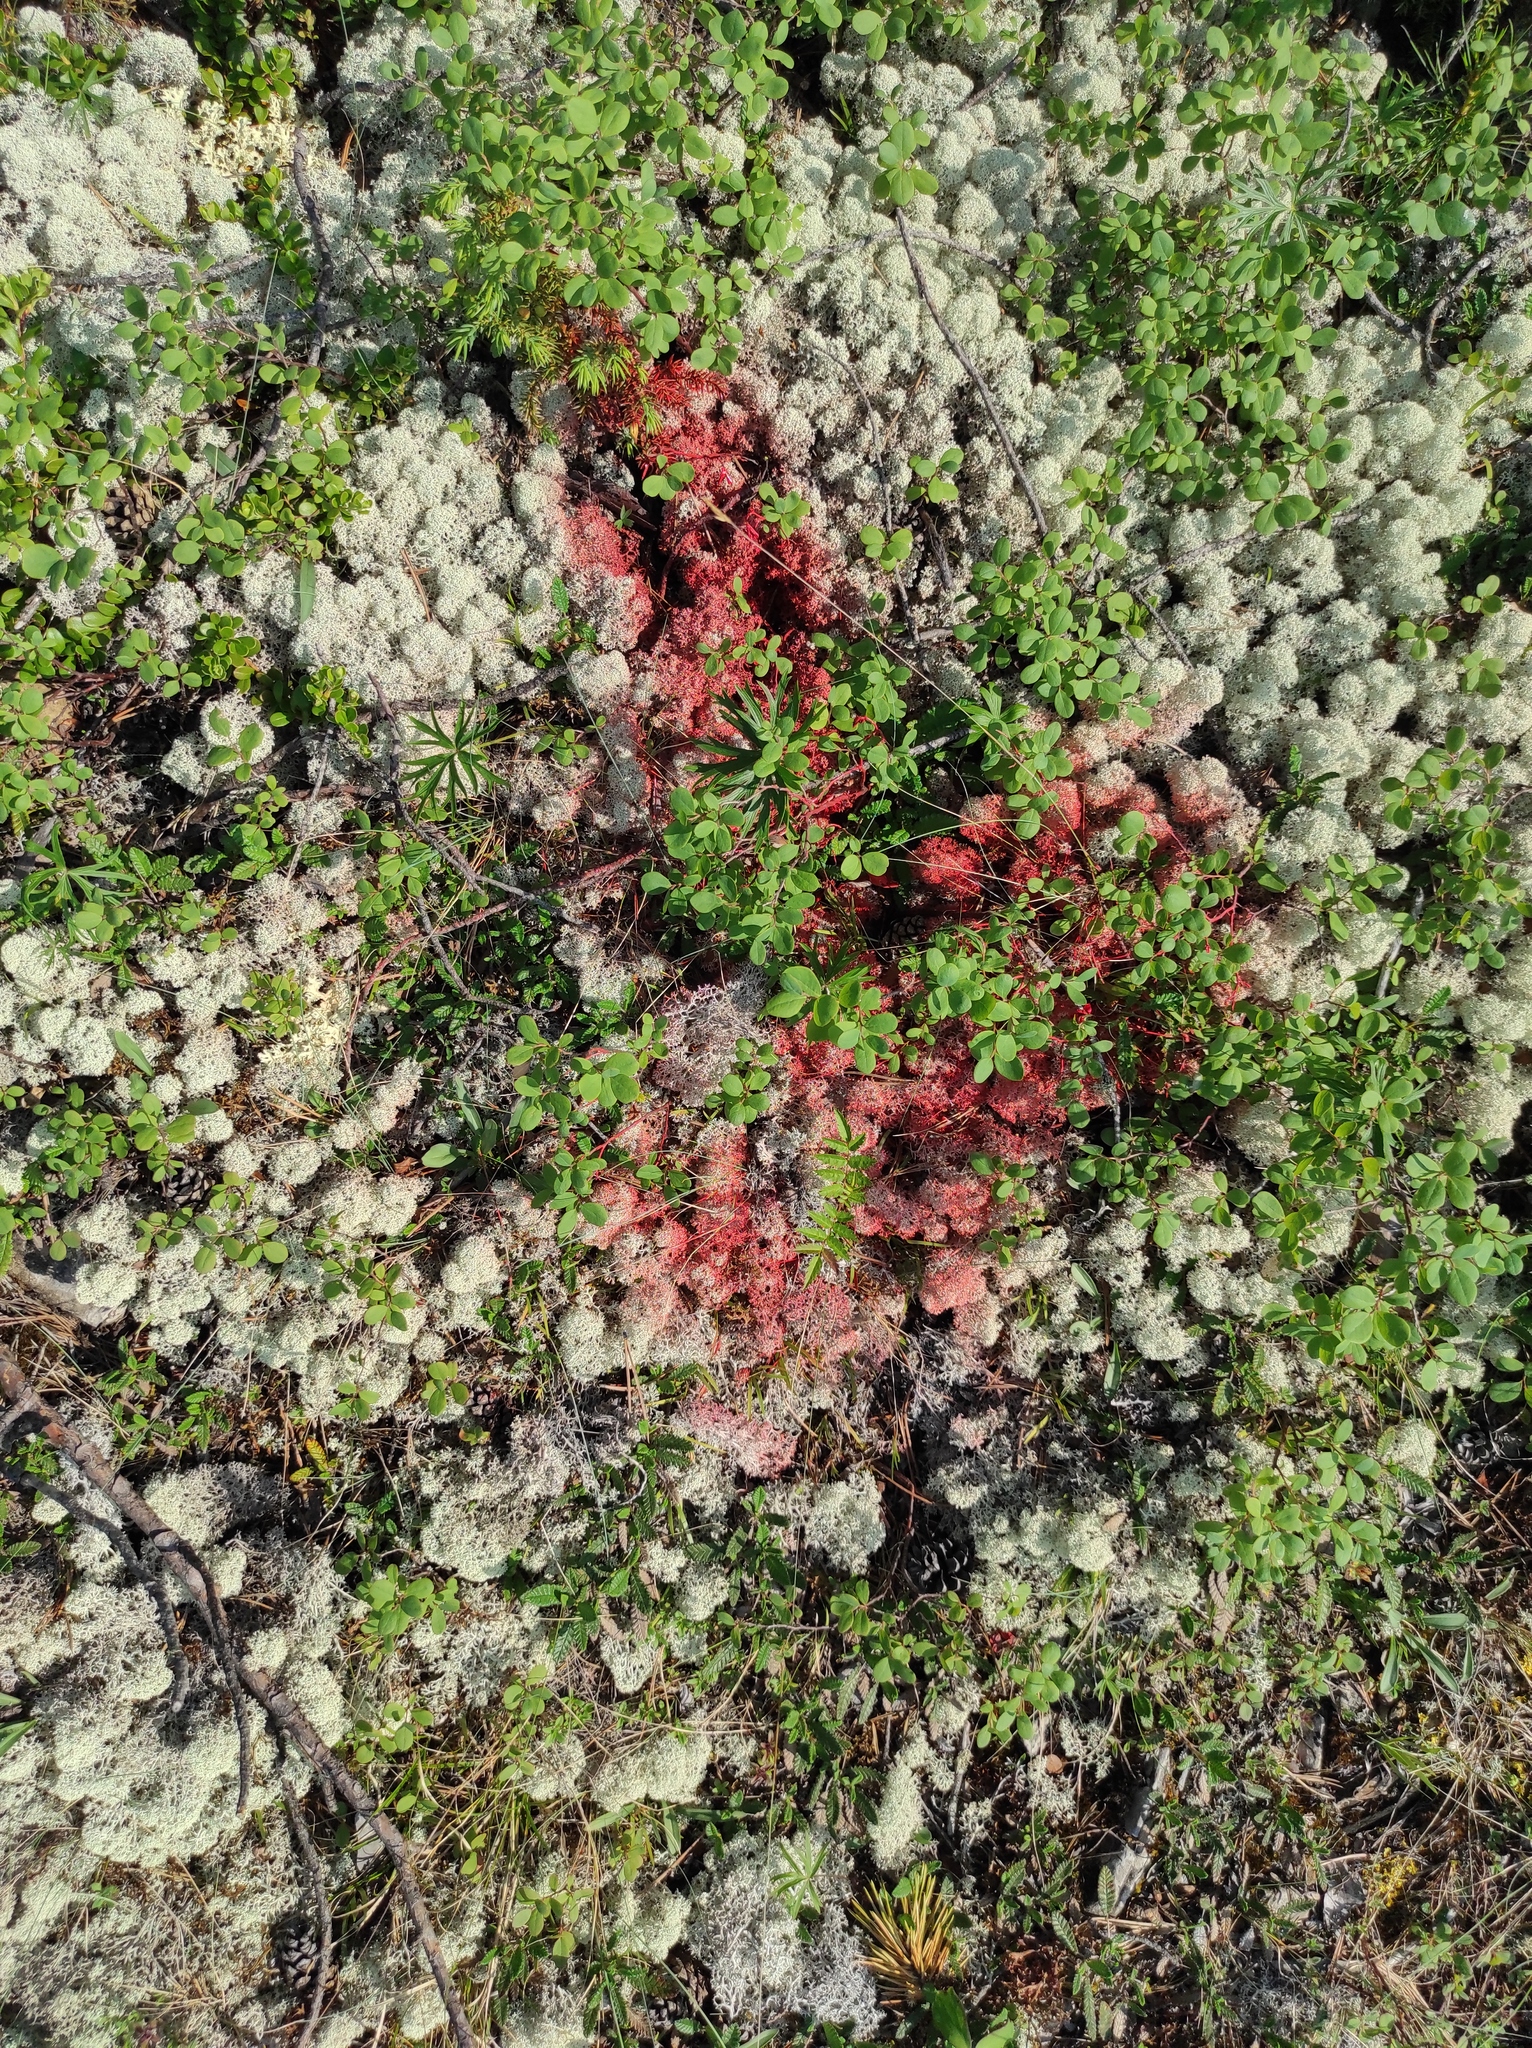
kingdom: Plantae
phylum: Tracheophyta
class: Magnoliopsida
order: Ericales
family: Ericaceae
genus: Vaccinium
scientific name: Vaccinium uliginosum
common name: Bog bilberry
